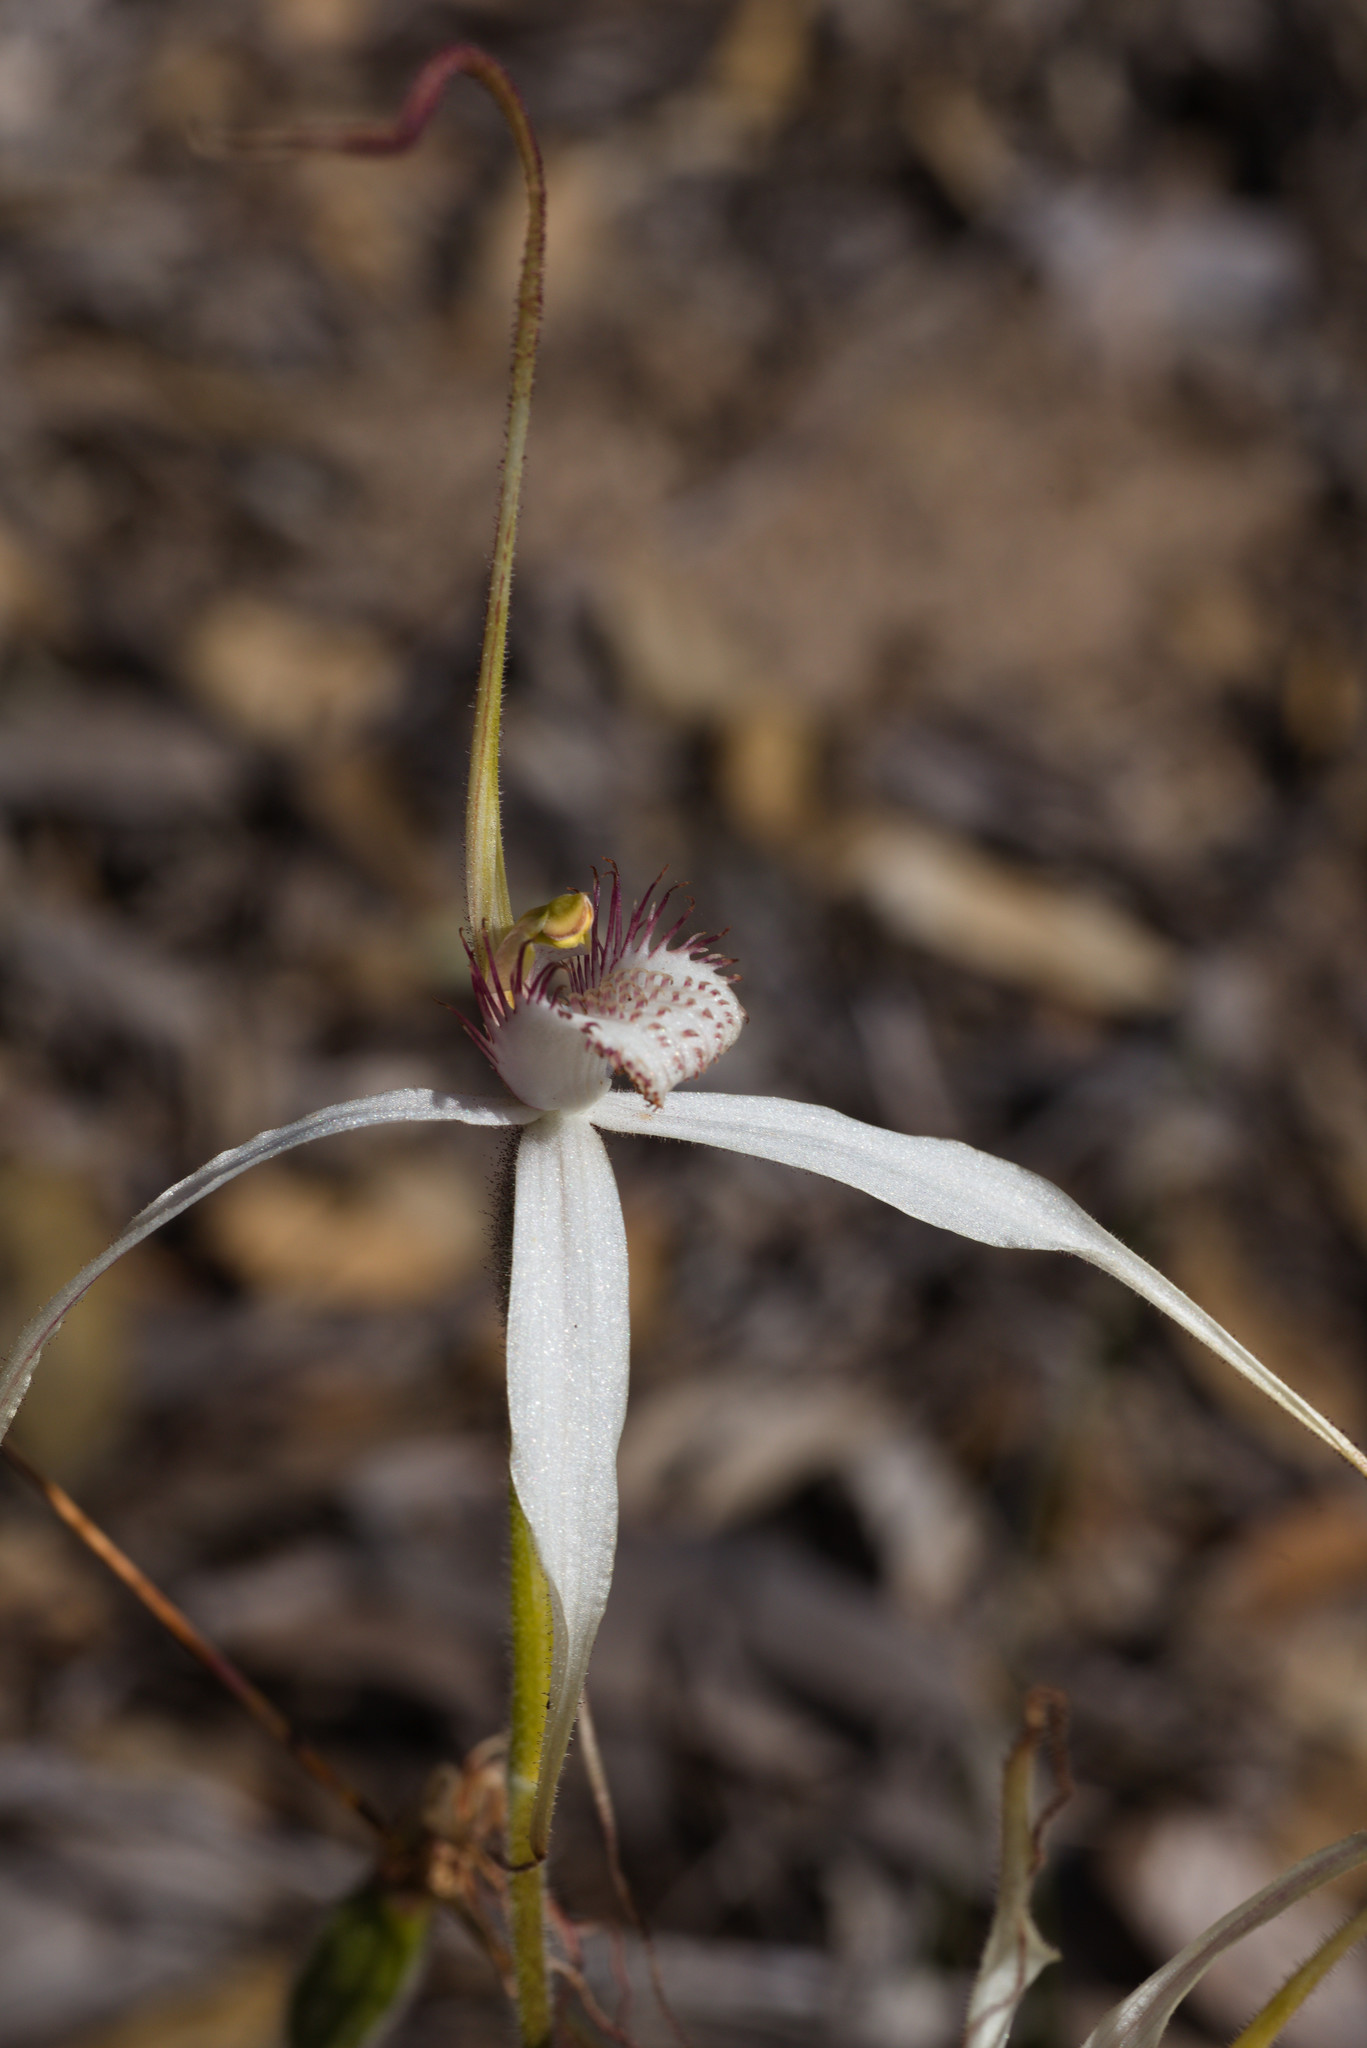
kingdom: Plantae
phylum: Tracheophyta
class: Liliopsida
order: Asparagales
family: Orchidaceae
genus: Caladenia
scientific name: Caladenia longicauda
